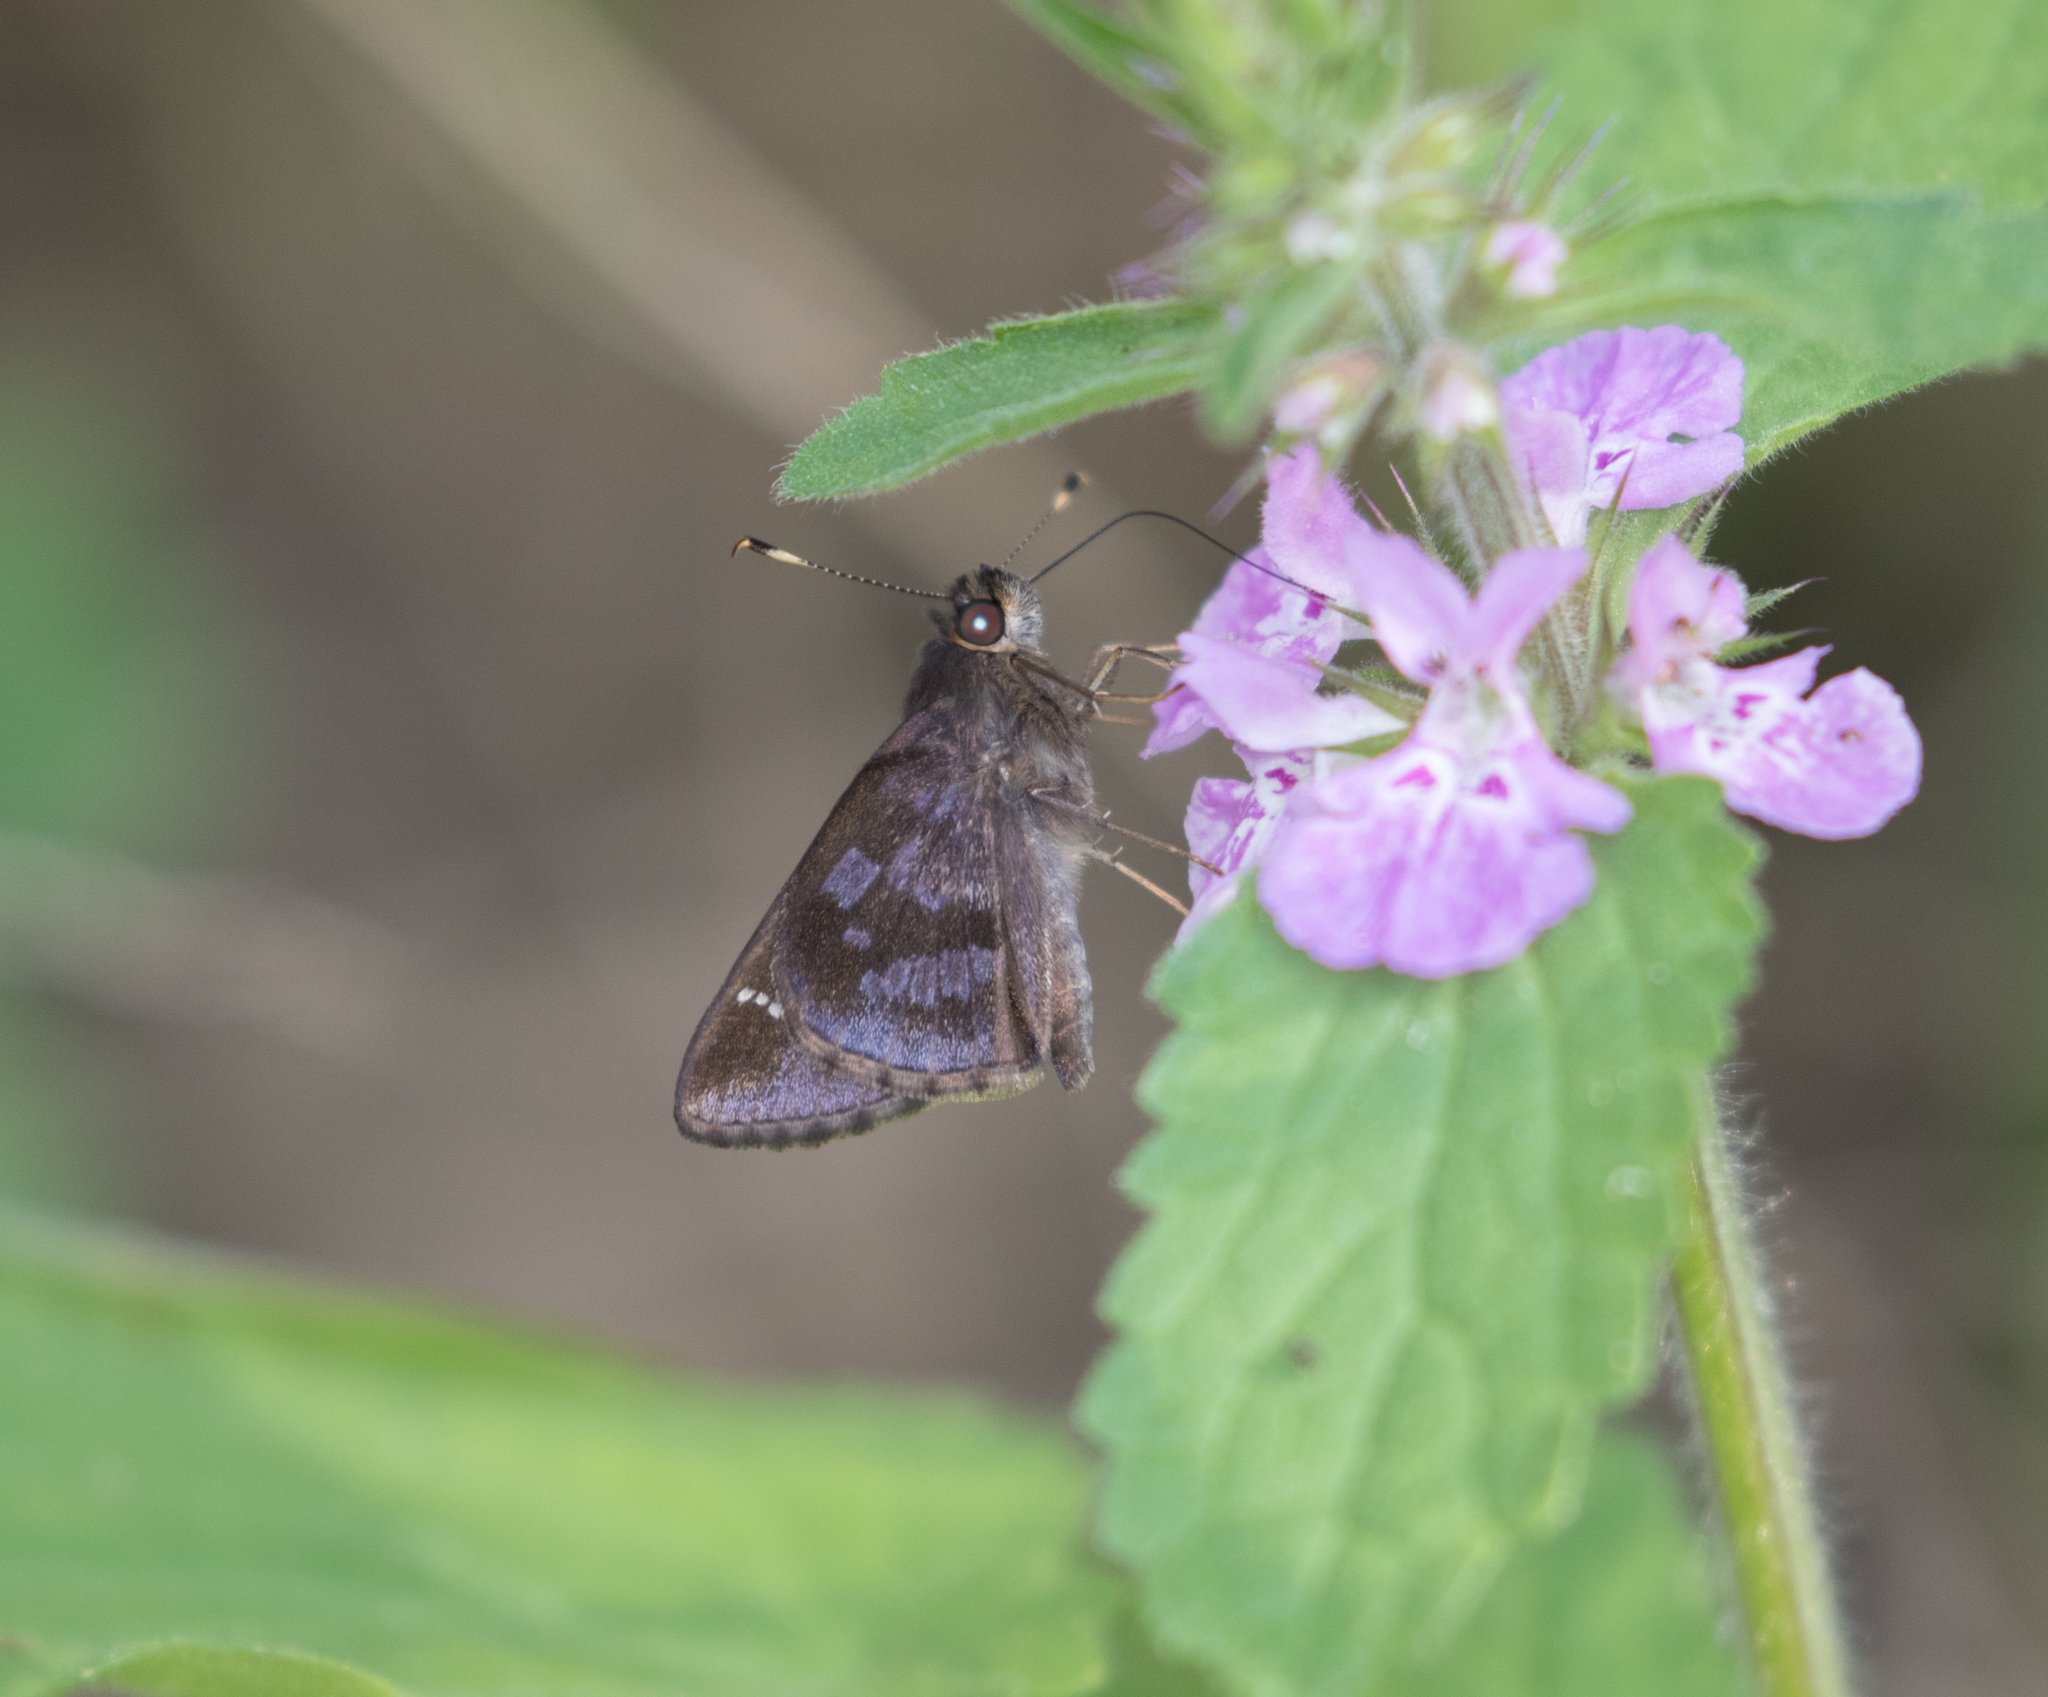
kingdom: Animalia
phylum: Arthropoda
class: Insecta
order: Lepidoptera
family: Hesperiidae
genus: Cymaenes
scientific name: Cymaenes
